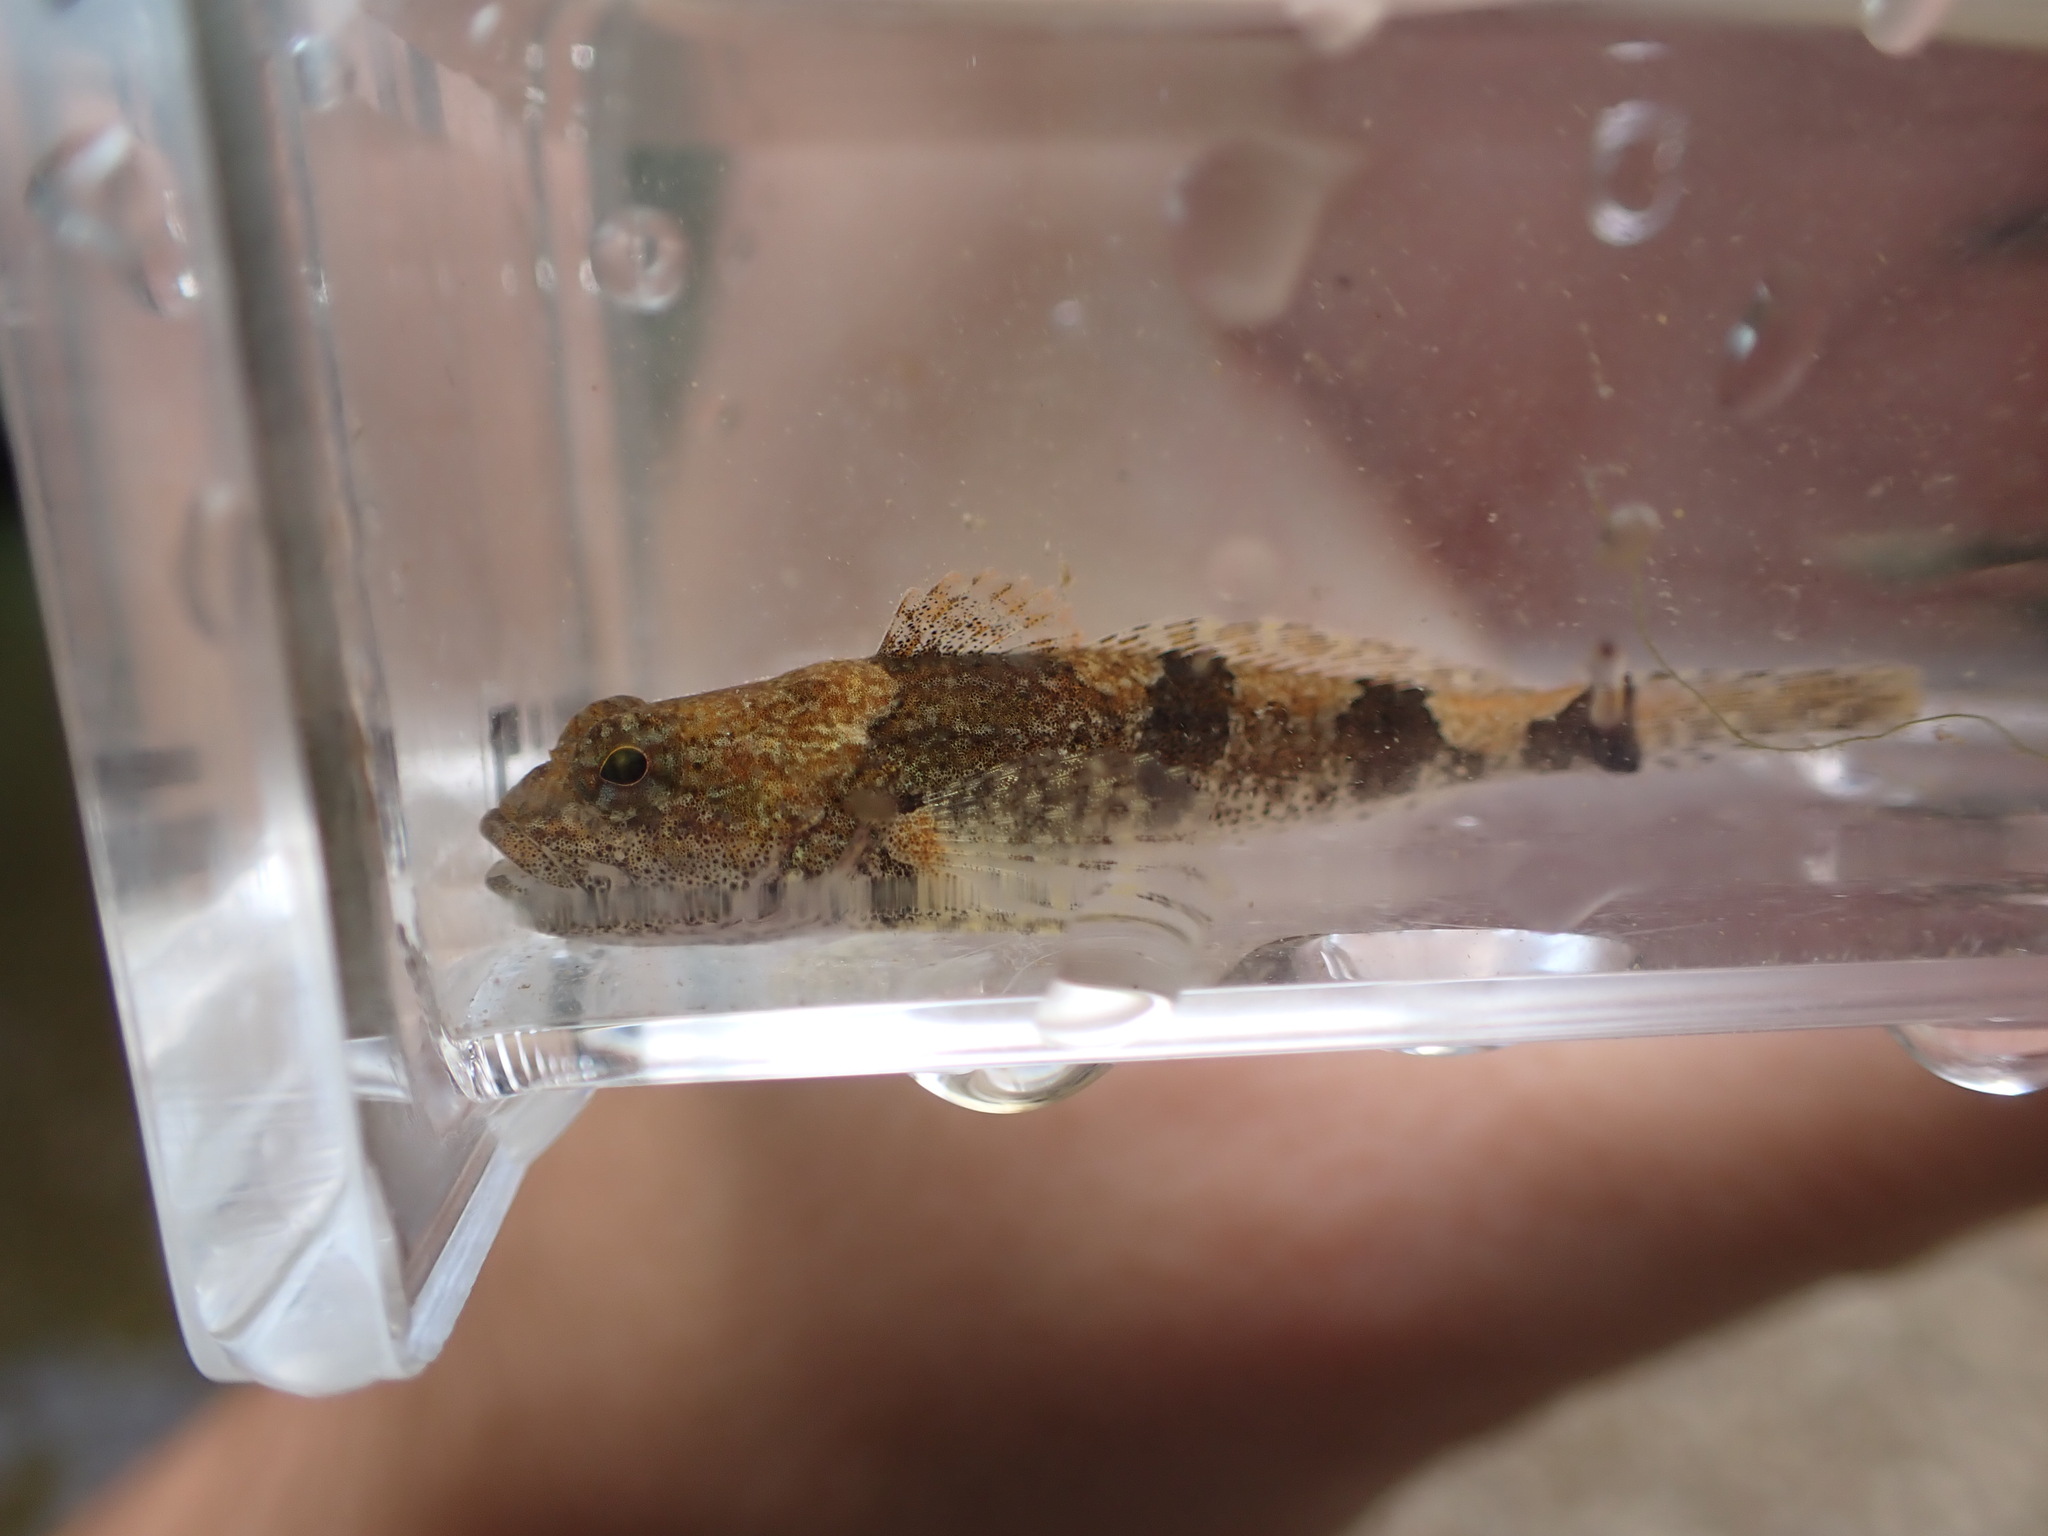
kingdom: Animalia
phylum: Chordata
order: Scorpaeniformes
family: Cottidae
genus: Cottus
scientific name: Cottus carolinae
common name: Banded sculpin
